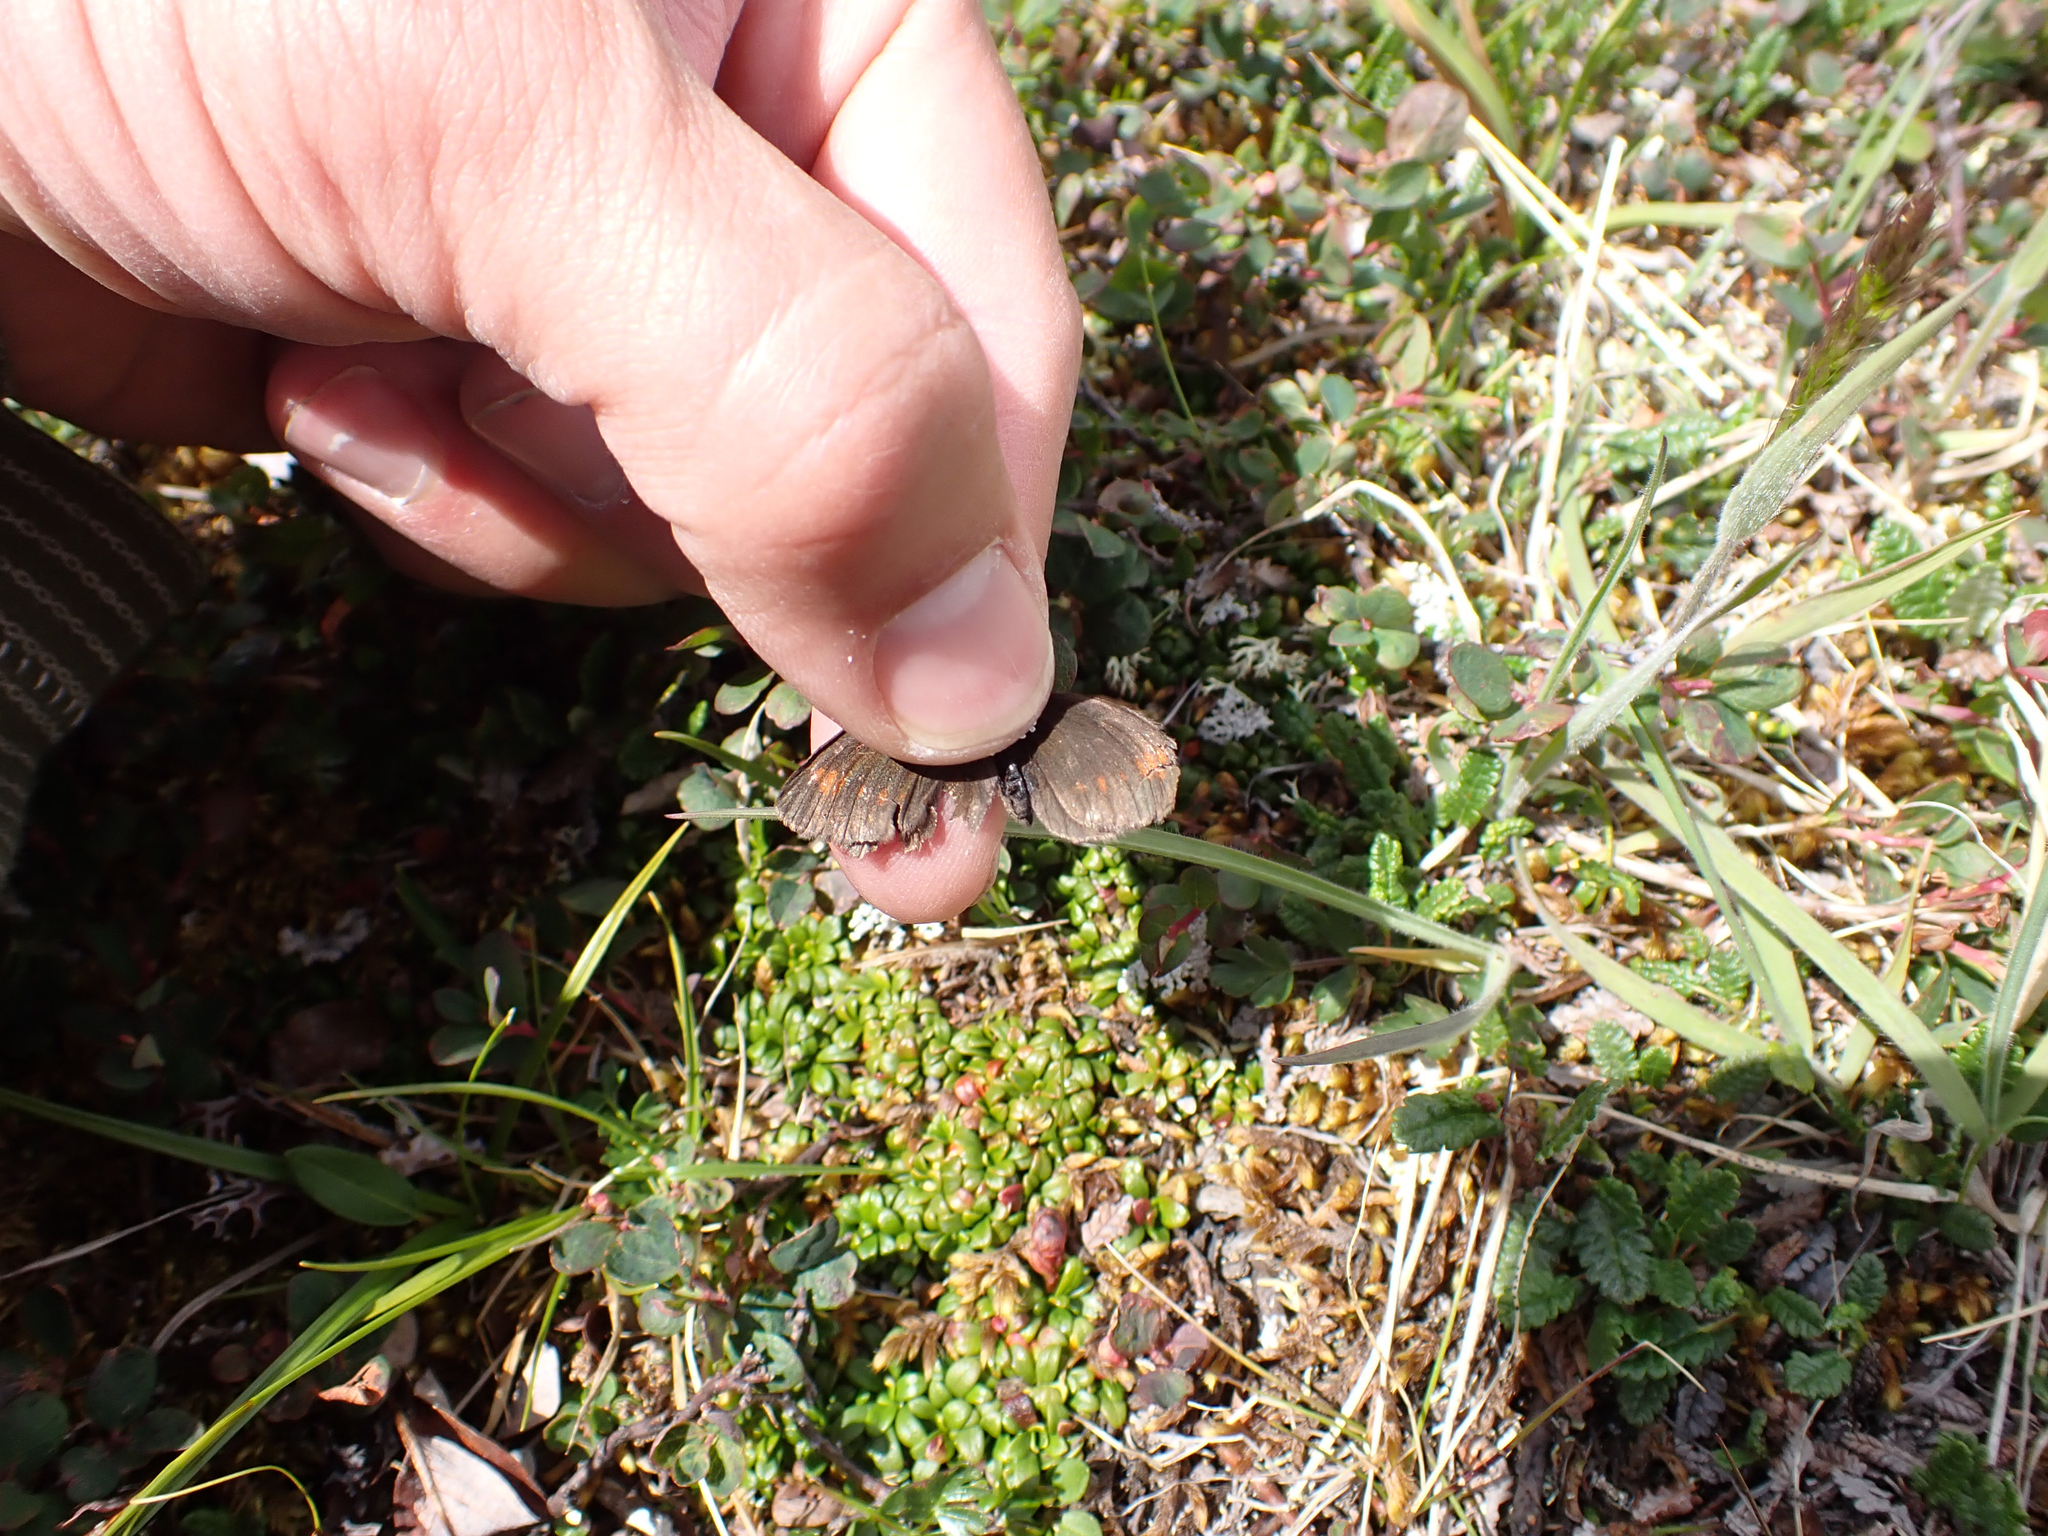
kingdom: Animalia
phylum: Arthropoda
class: Insecta
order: Lepidoptera
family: Nymphalidae
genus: Erebia
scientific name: Erebia pawloskii
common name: Theano alpine
